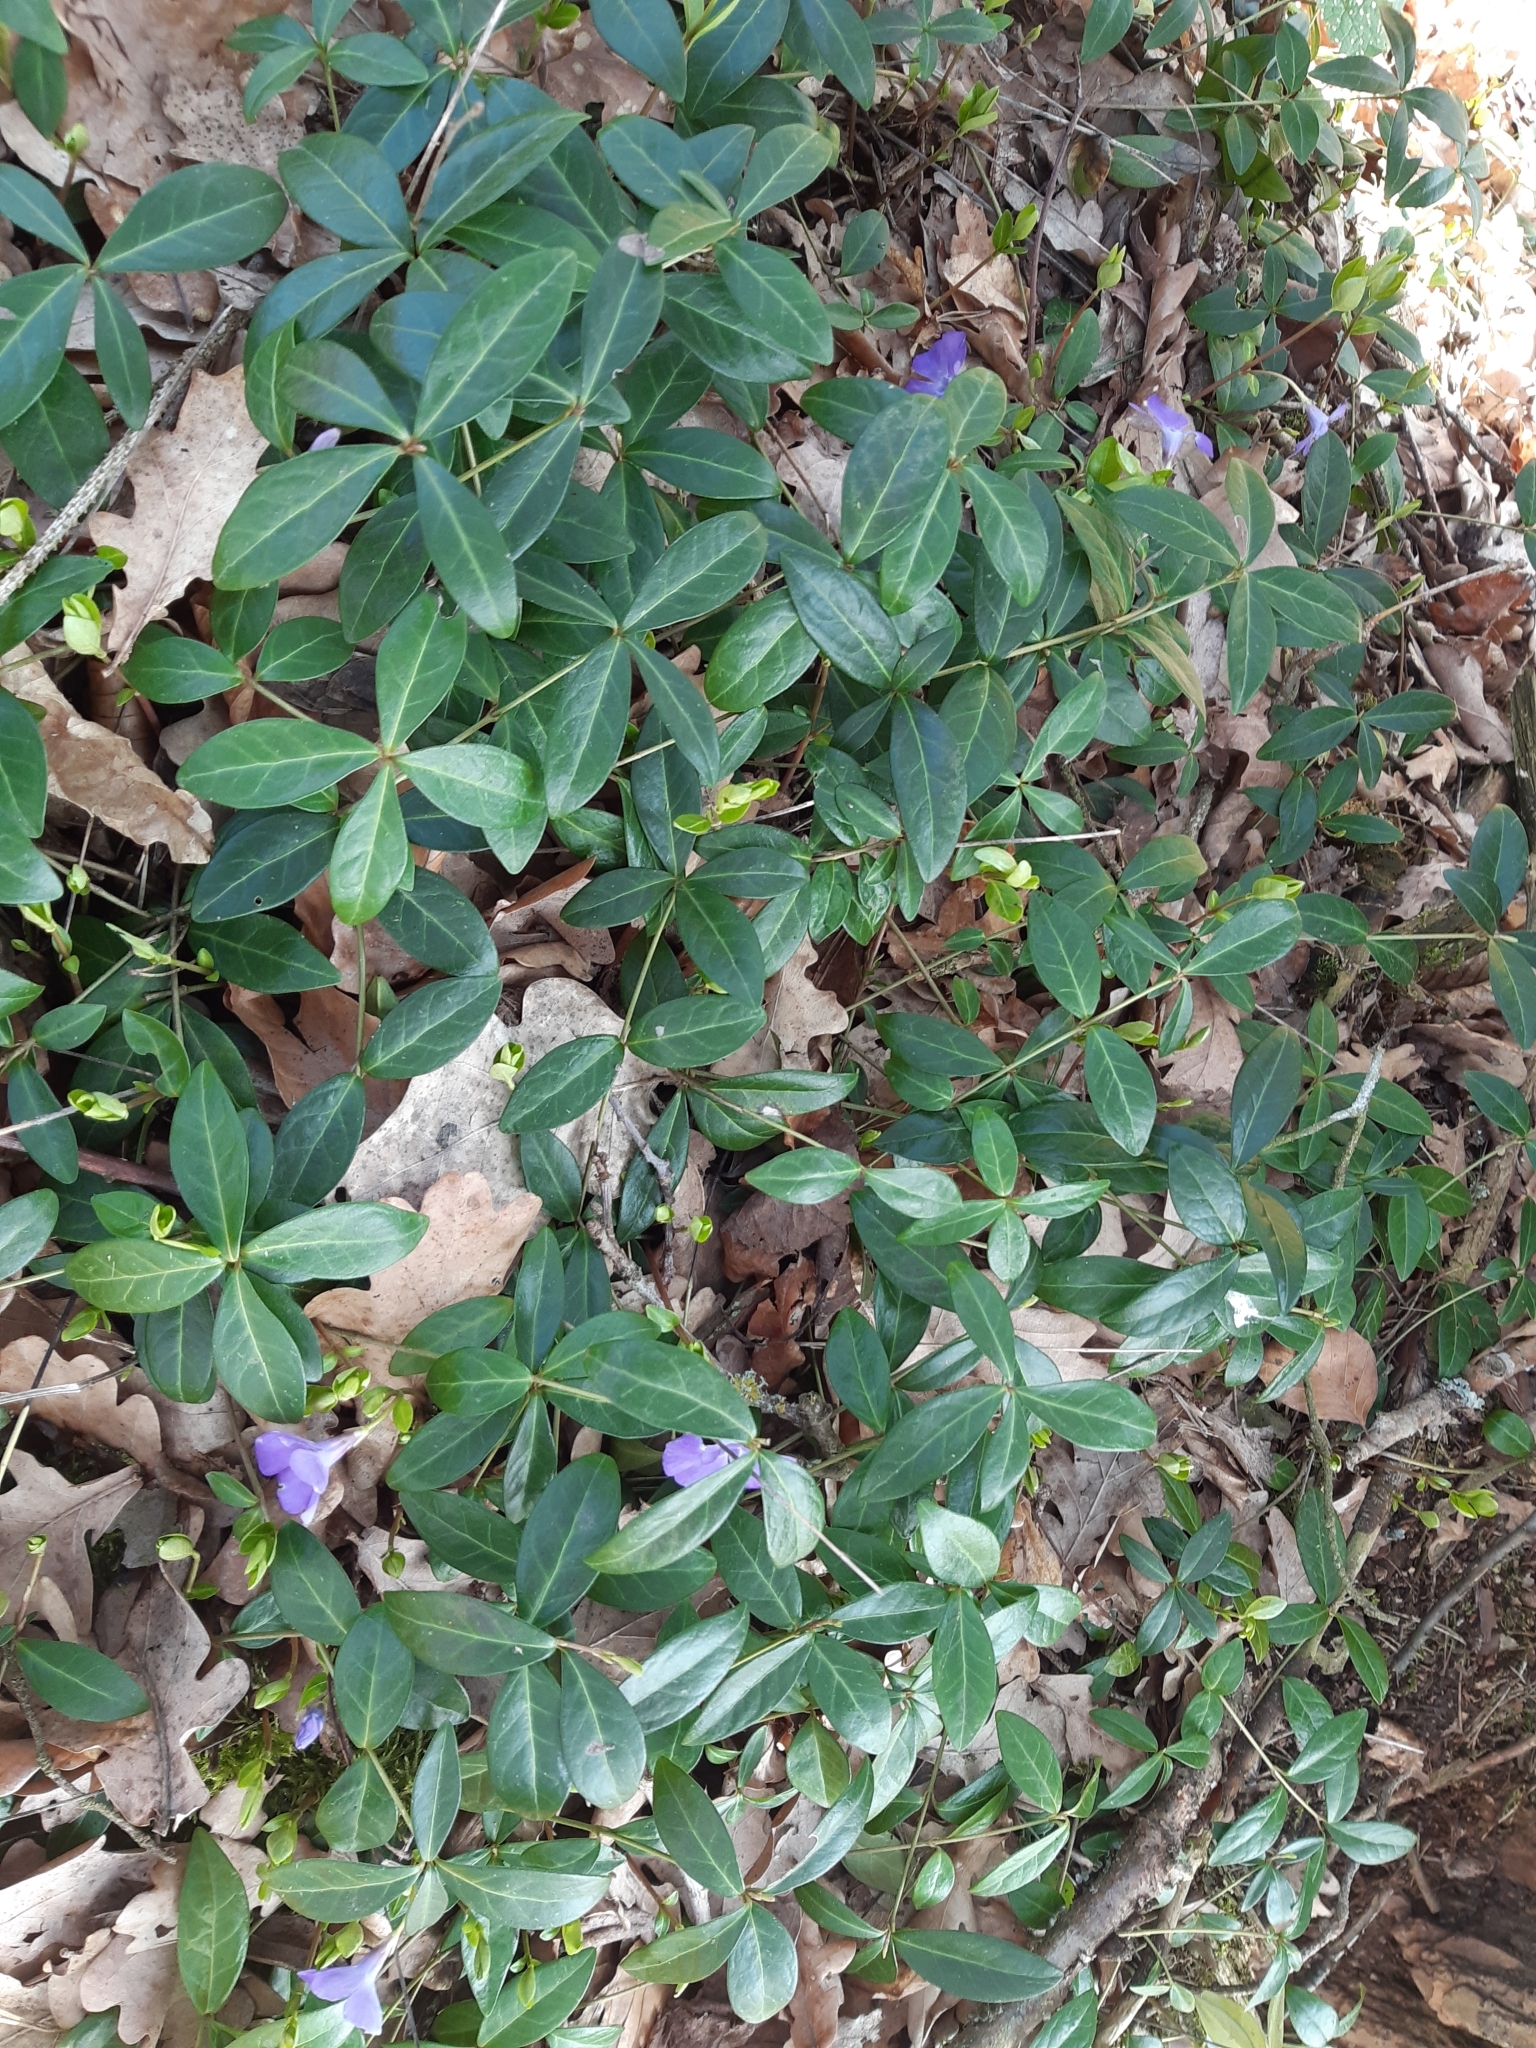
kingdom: Plantae
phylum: Tracheophyta
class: Magnoliopsida
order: Gentianales
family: Apocynaceae
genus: Vinca
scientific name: Vinca minor
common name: Lesser periwinkle
